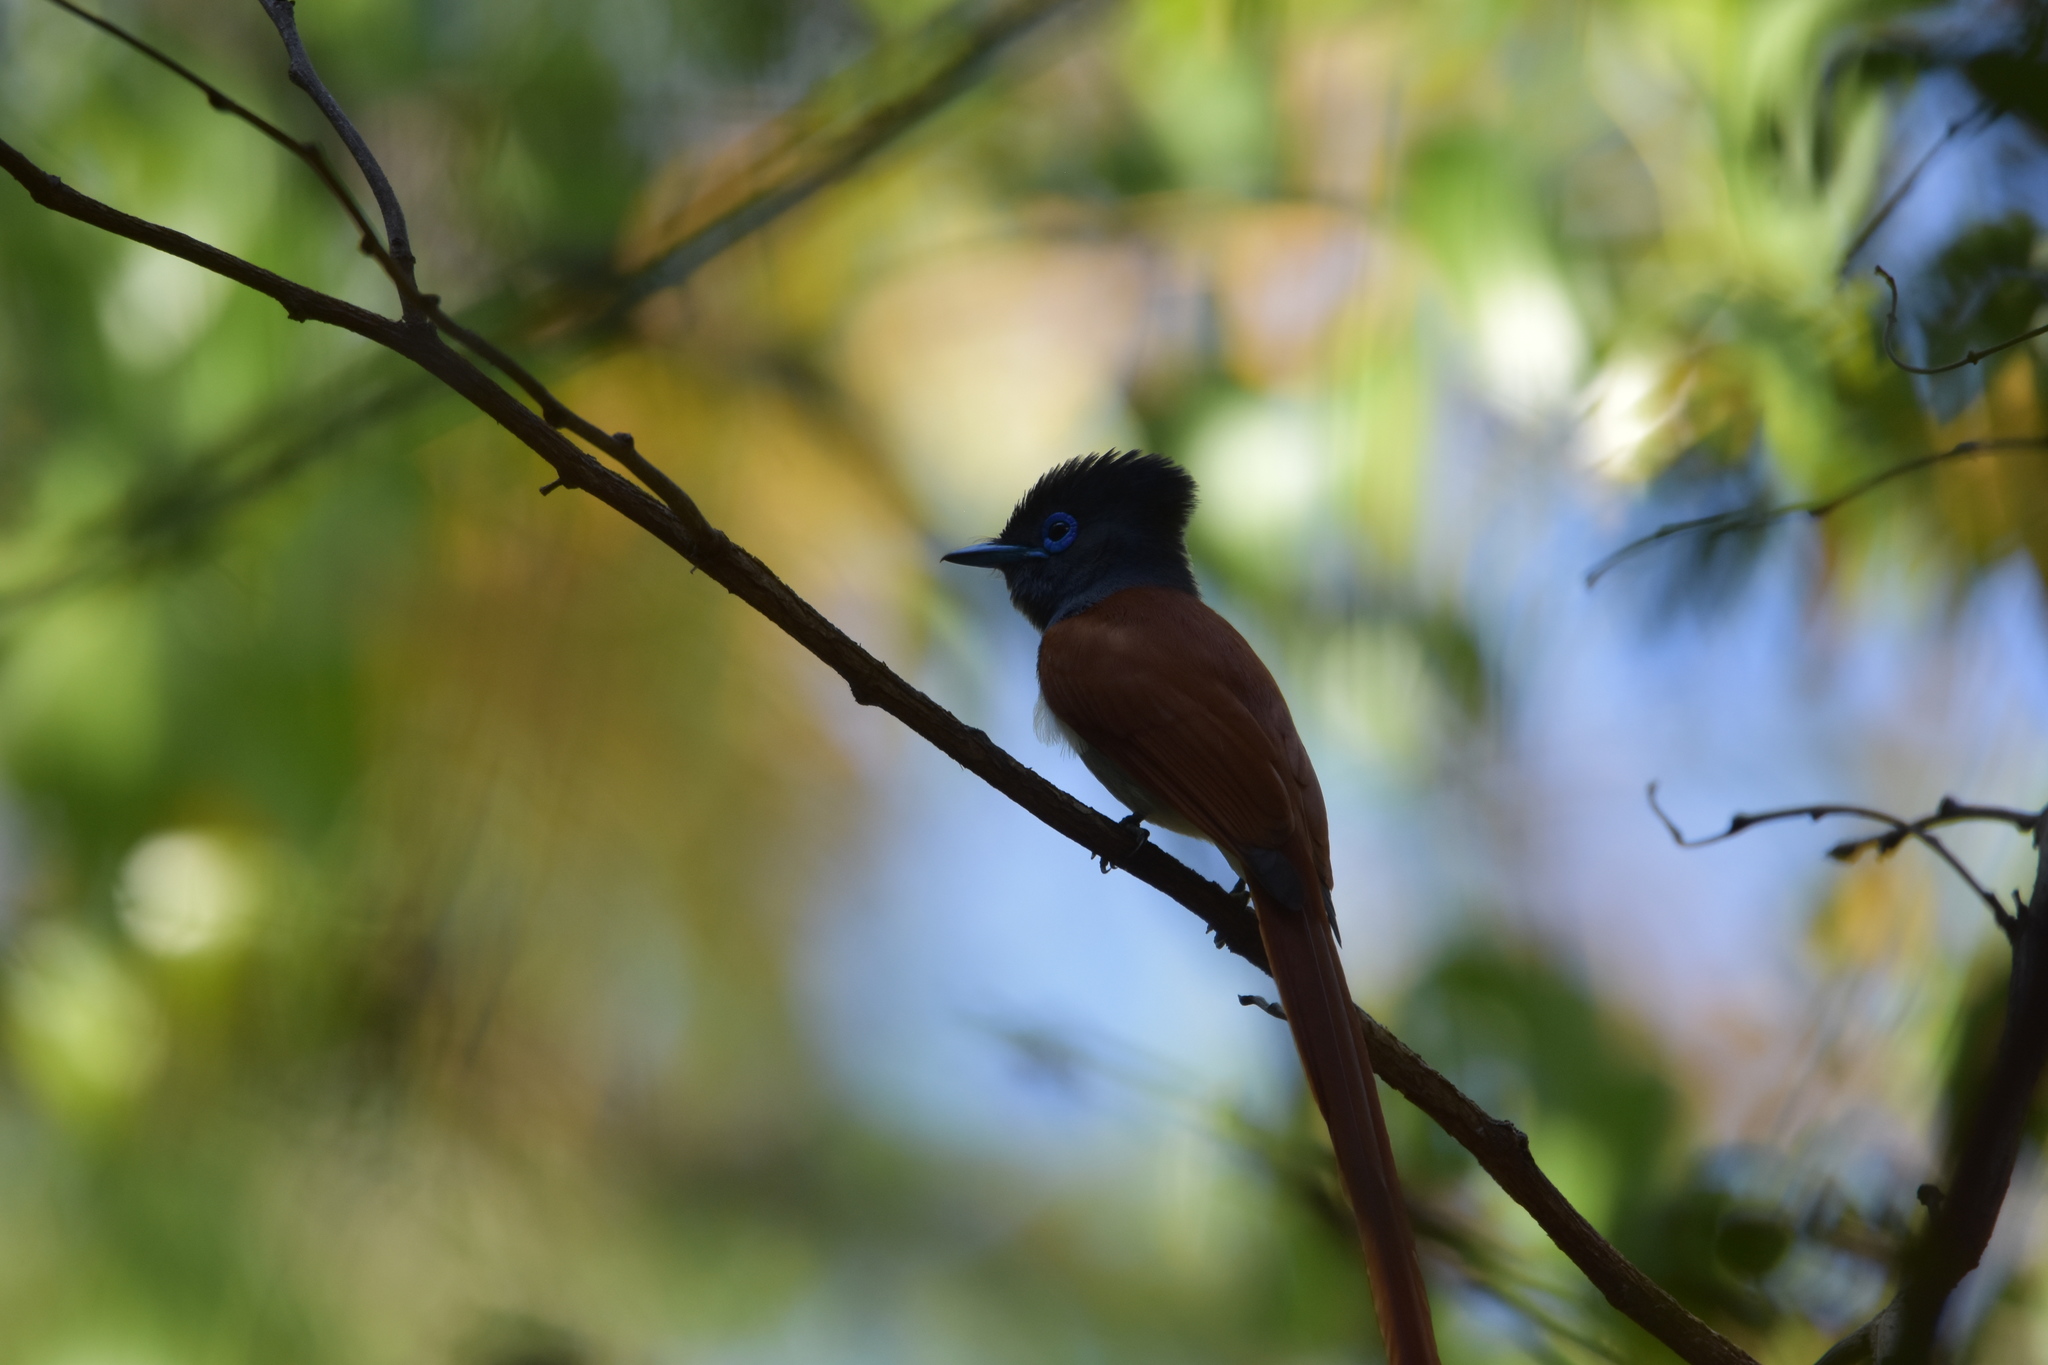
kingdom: Animalia
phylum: Chordata
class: Aves
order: Passeriformes
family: Monarchidae
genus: Terpsiphone
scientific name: Terpsiphone viridis
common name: African paradise flycatcher
